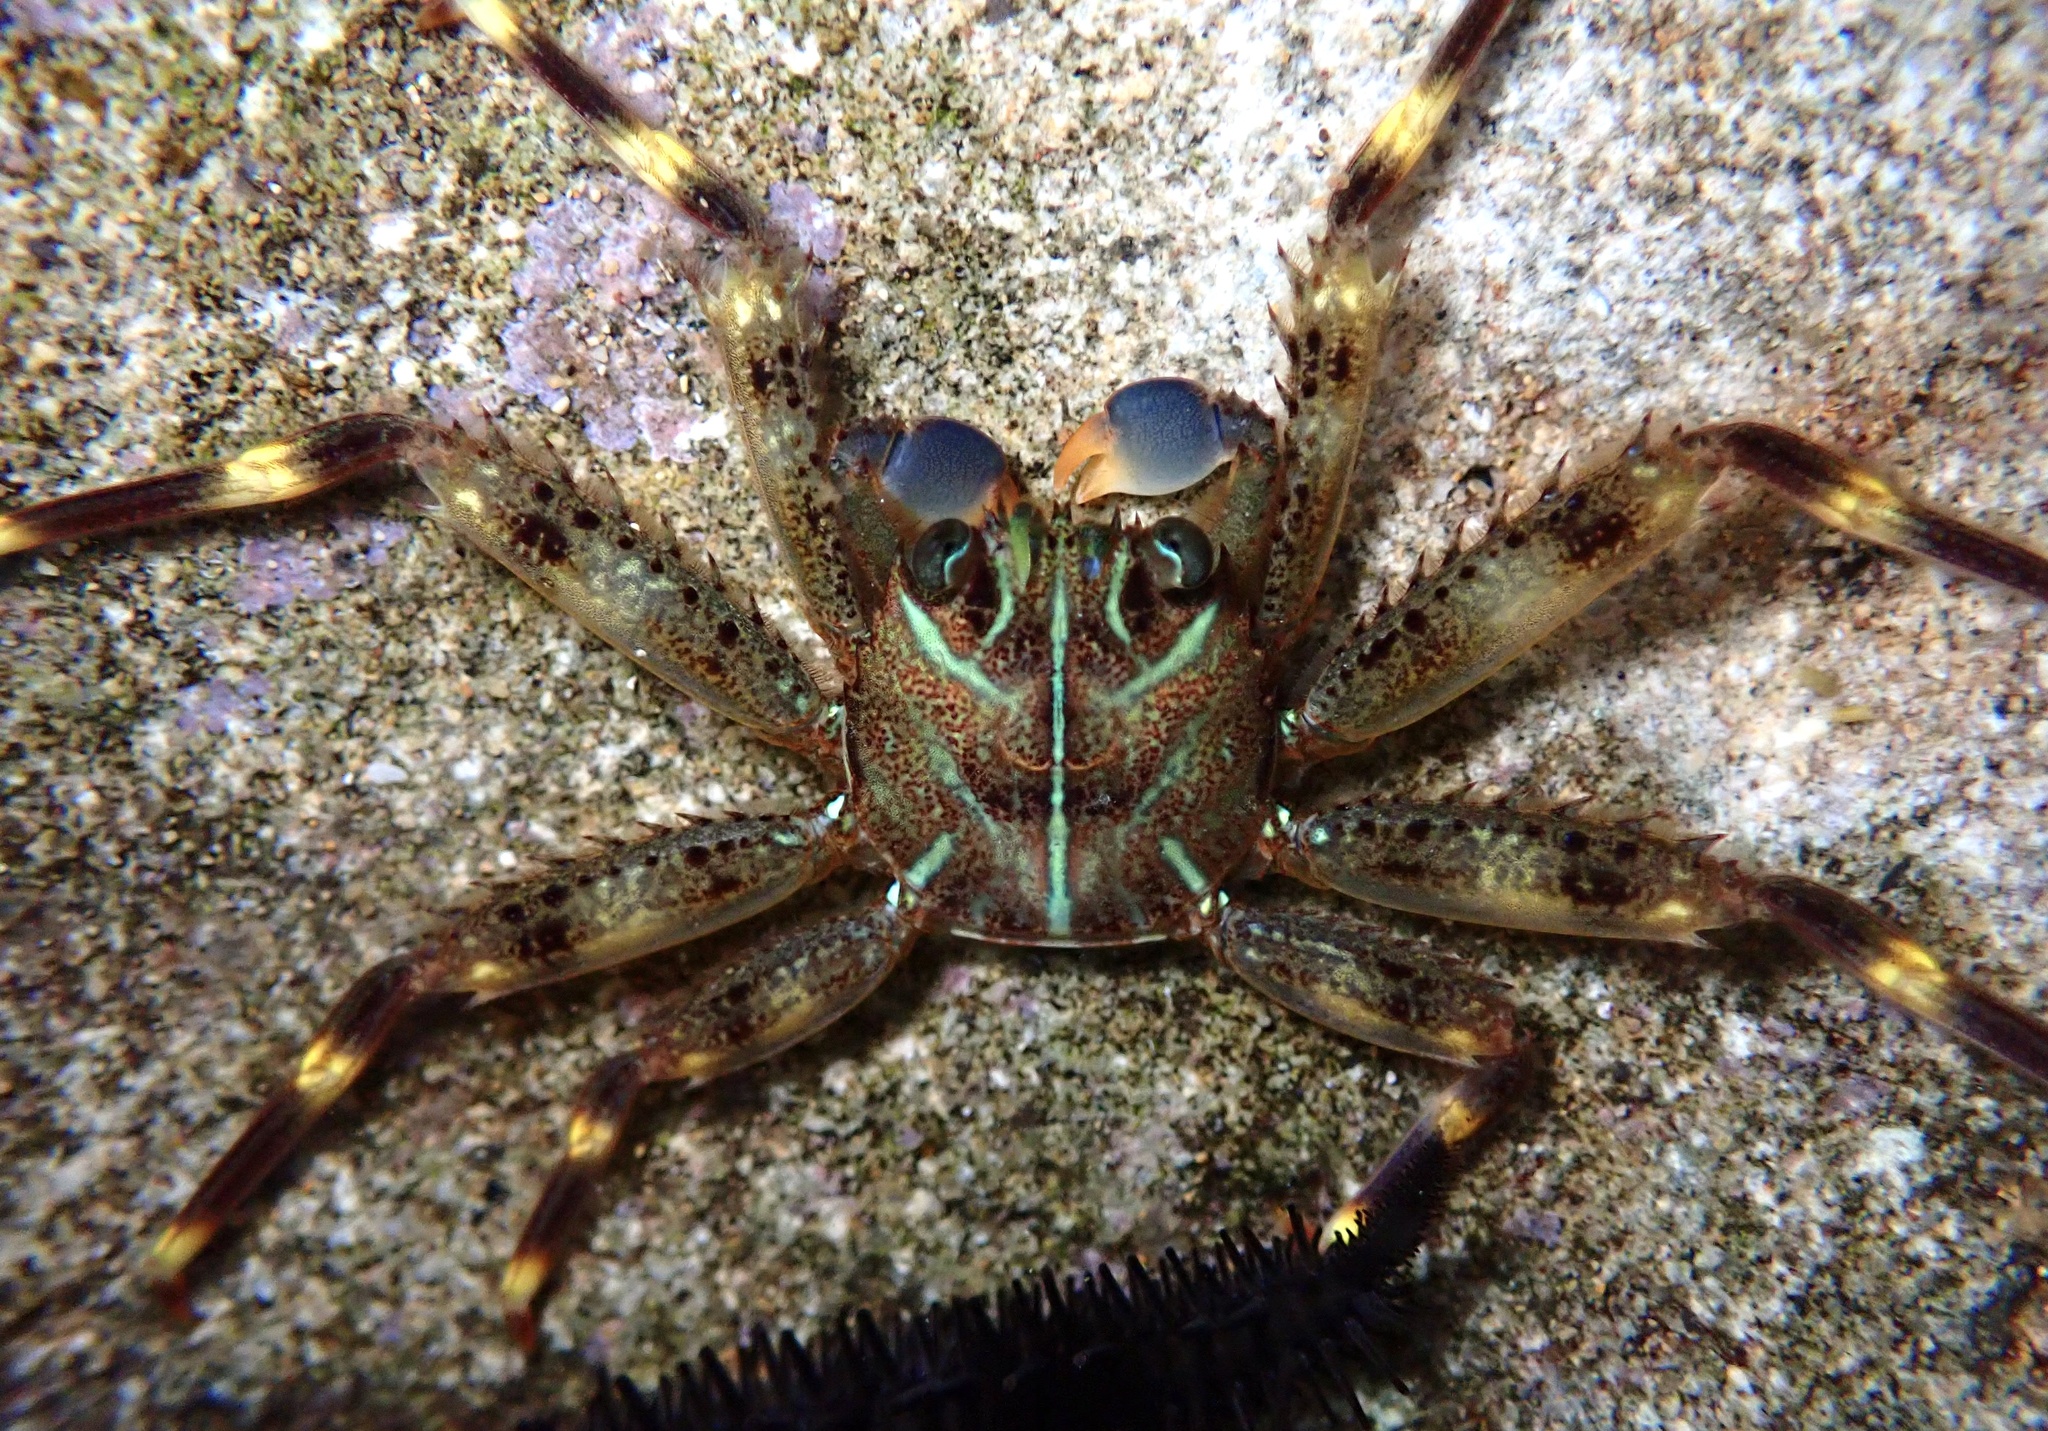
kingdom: Animalia
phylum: Arthropoda
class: Malacostraca
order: Decapoda
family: Percnidae
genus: Percnon
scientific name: Percnon planissimum
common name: Flat rock crab
